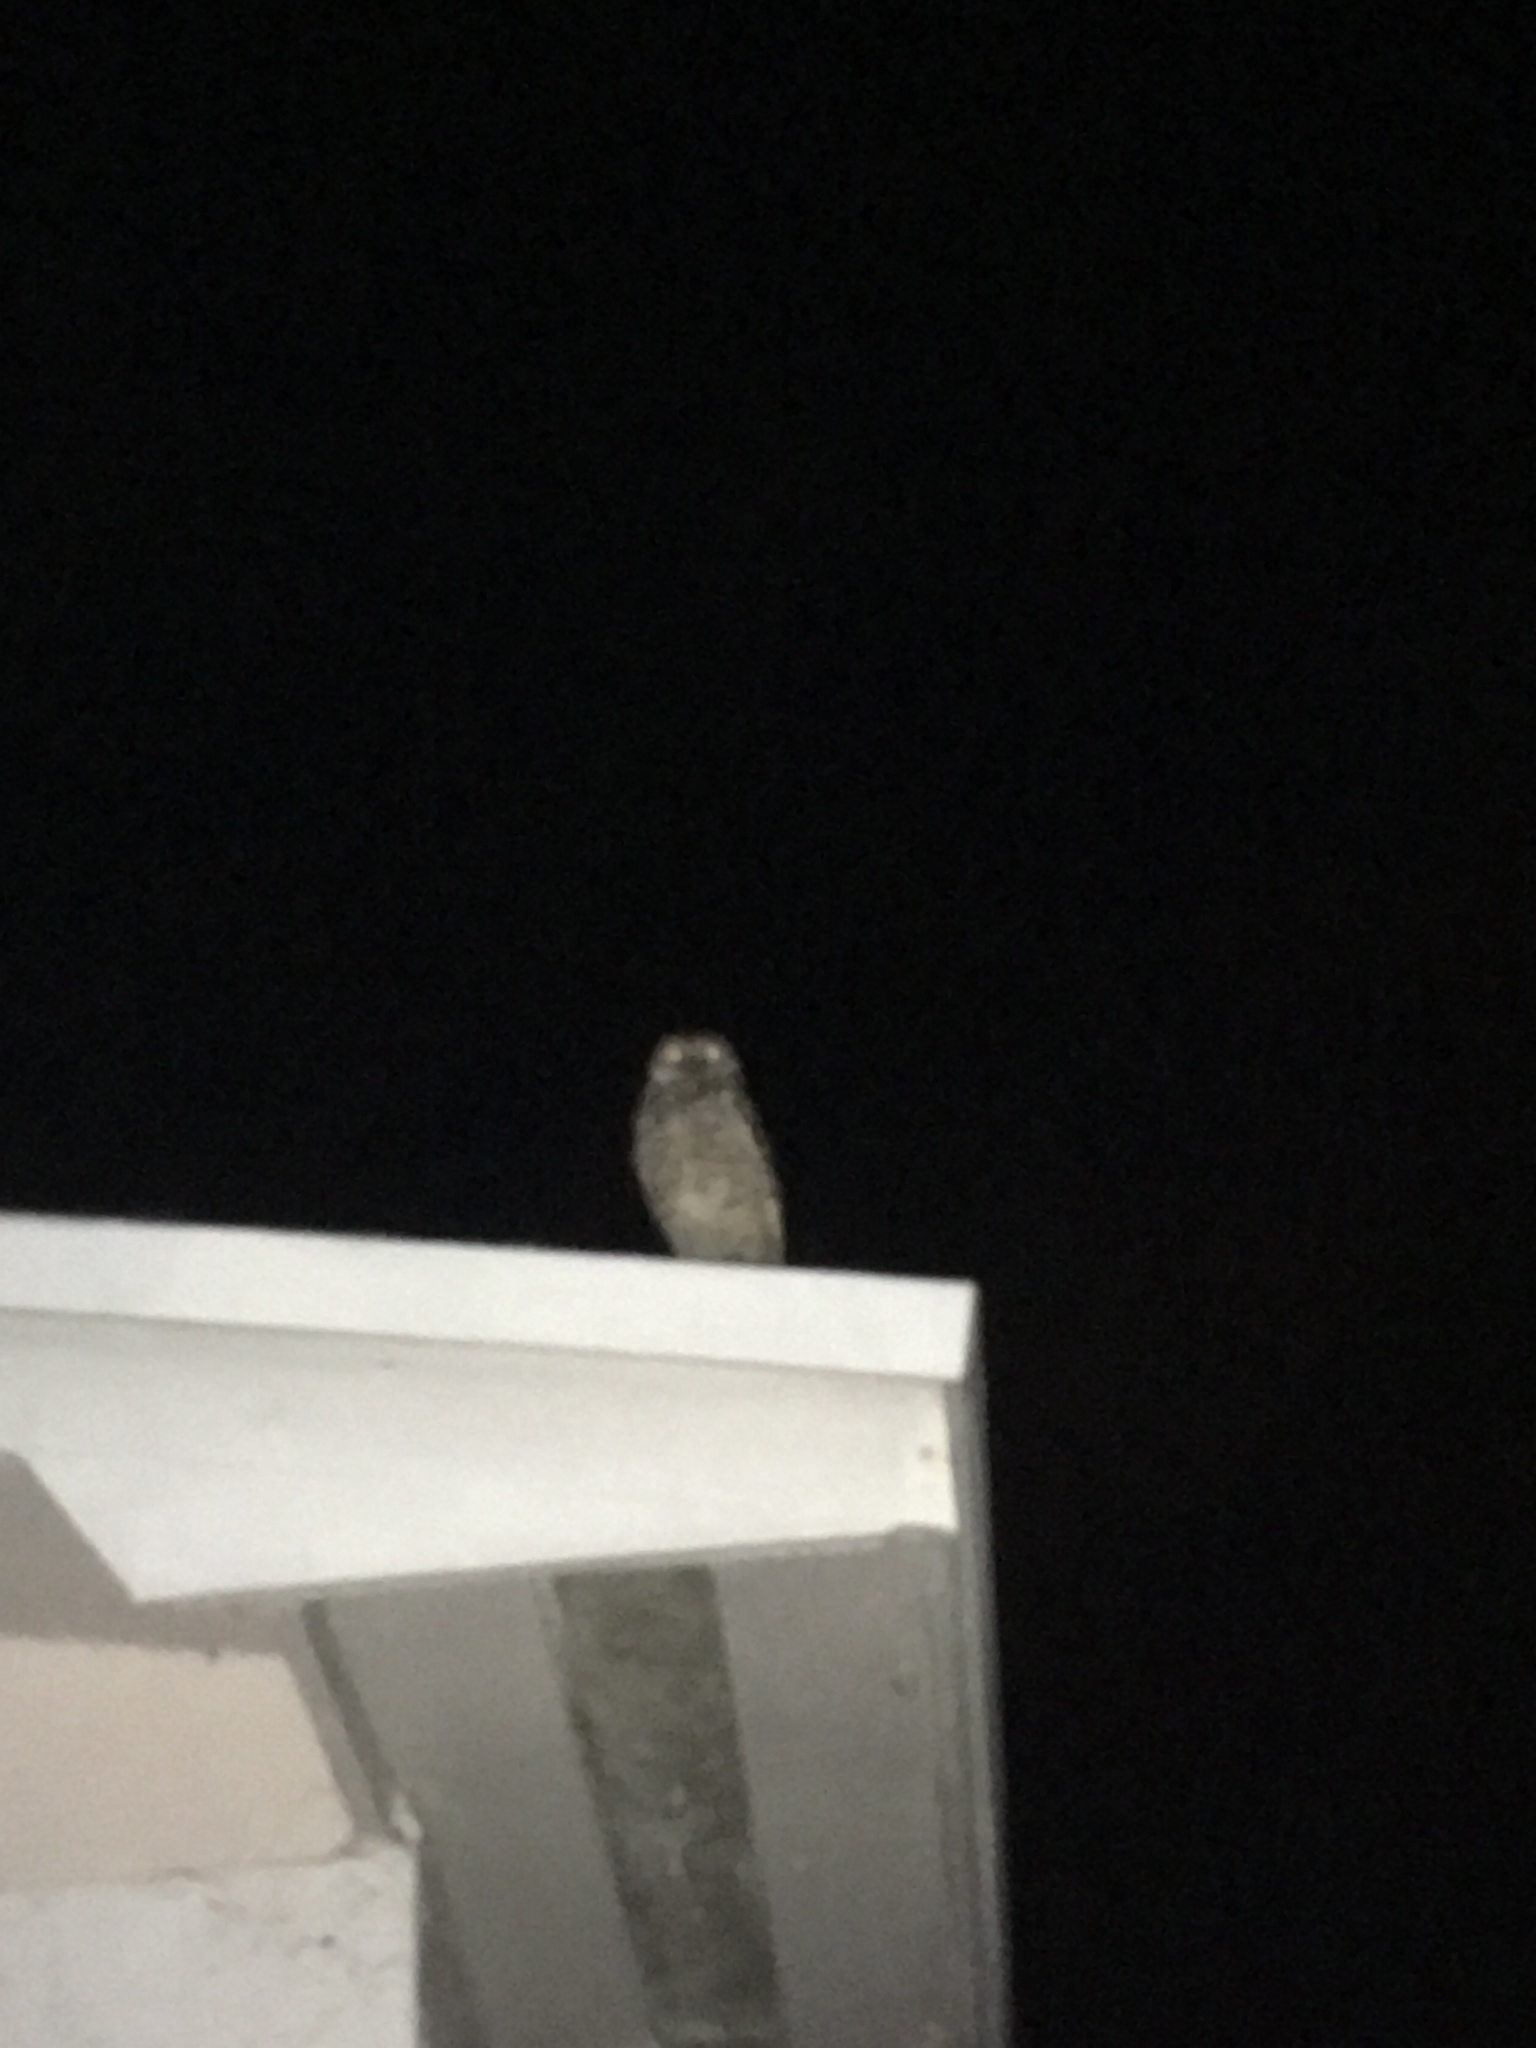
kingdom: Animalia
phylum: Chordata
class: Aves
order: Strigiformes
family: Strigidae
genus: Athene
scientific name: Athene cunicularia
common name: Burrowing owl
